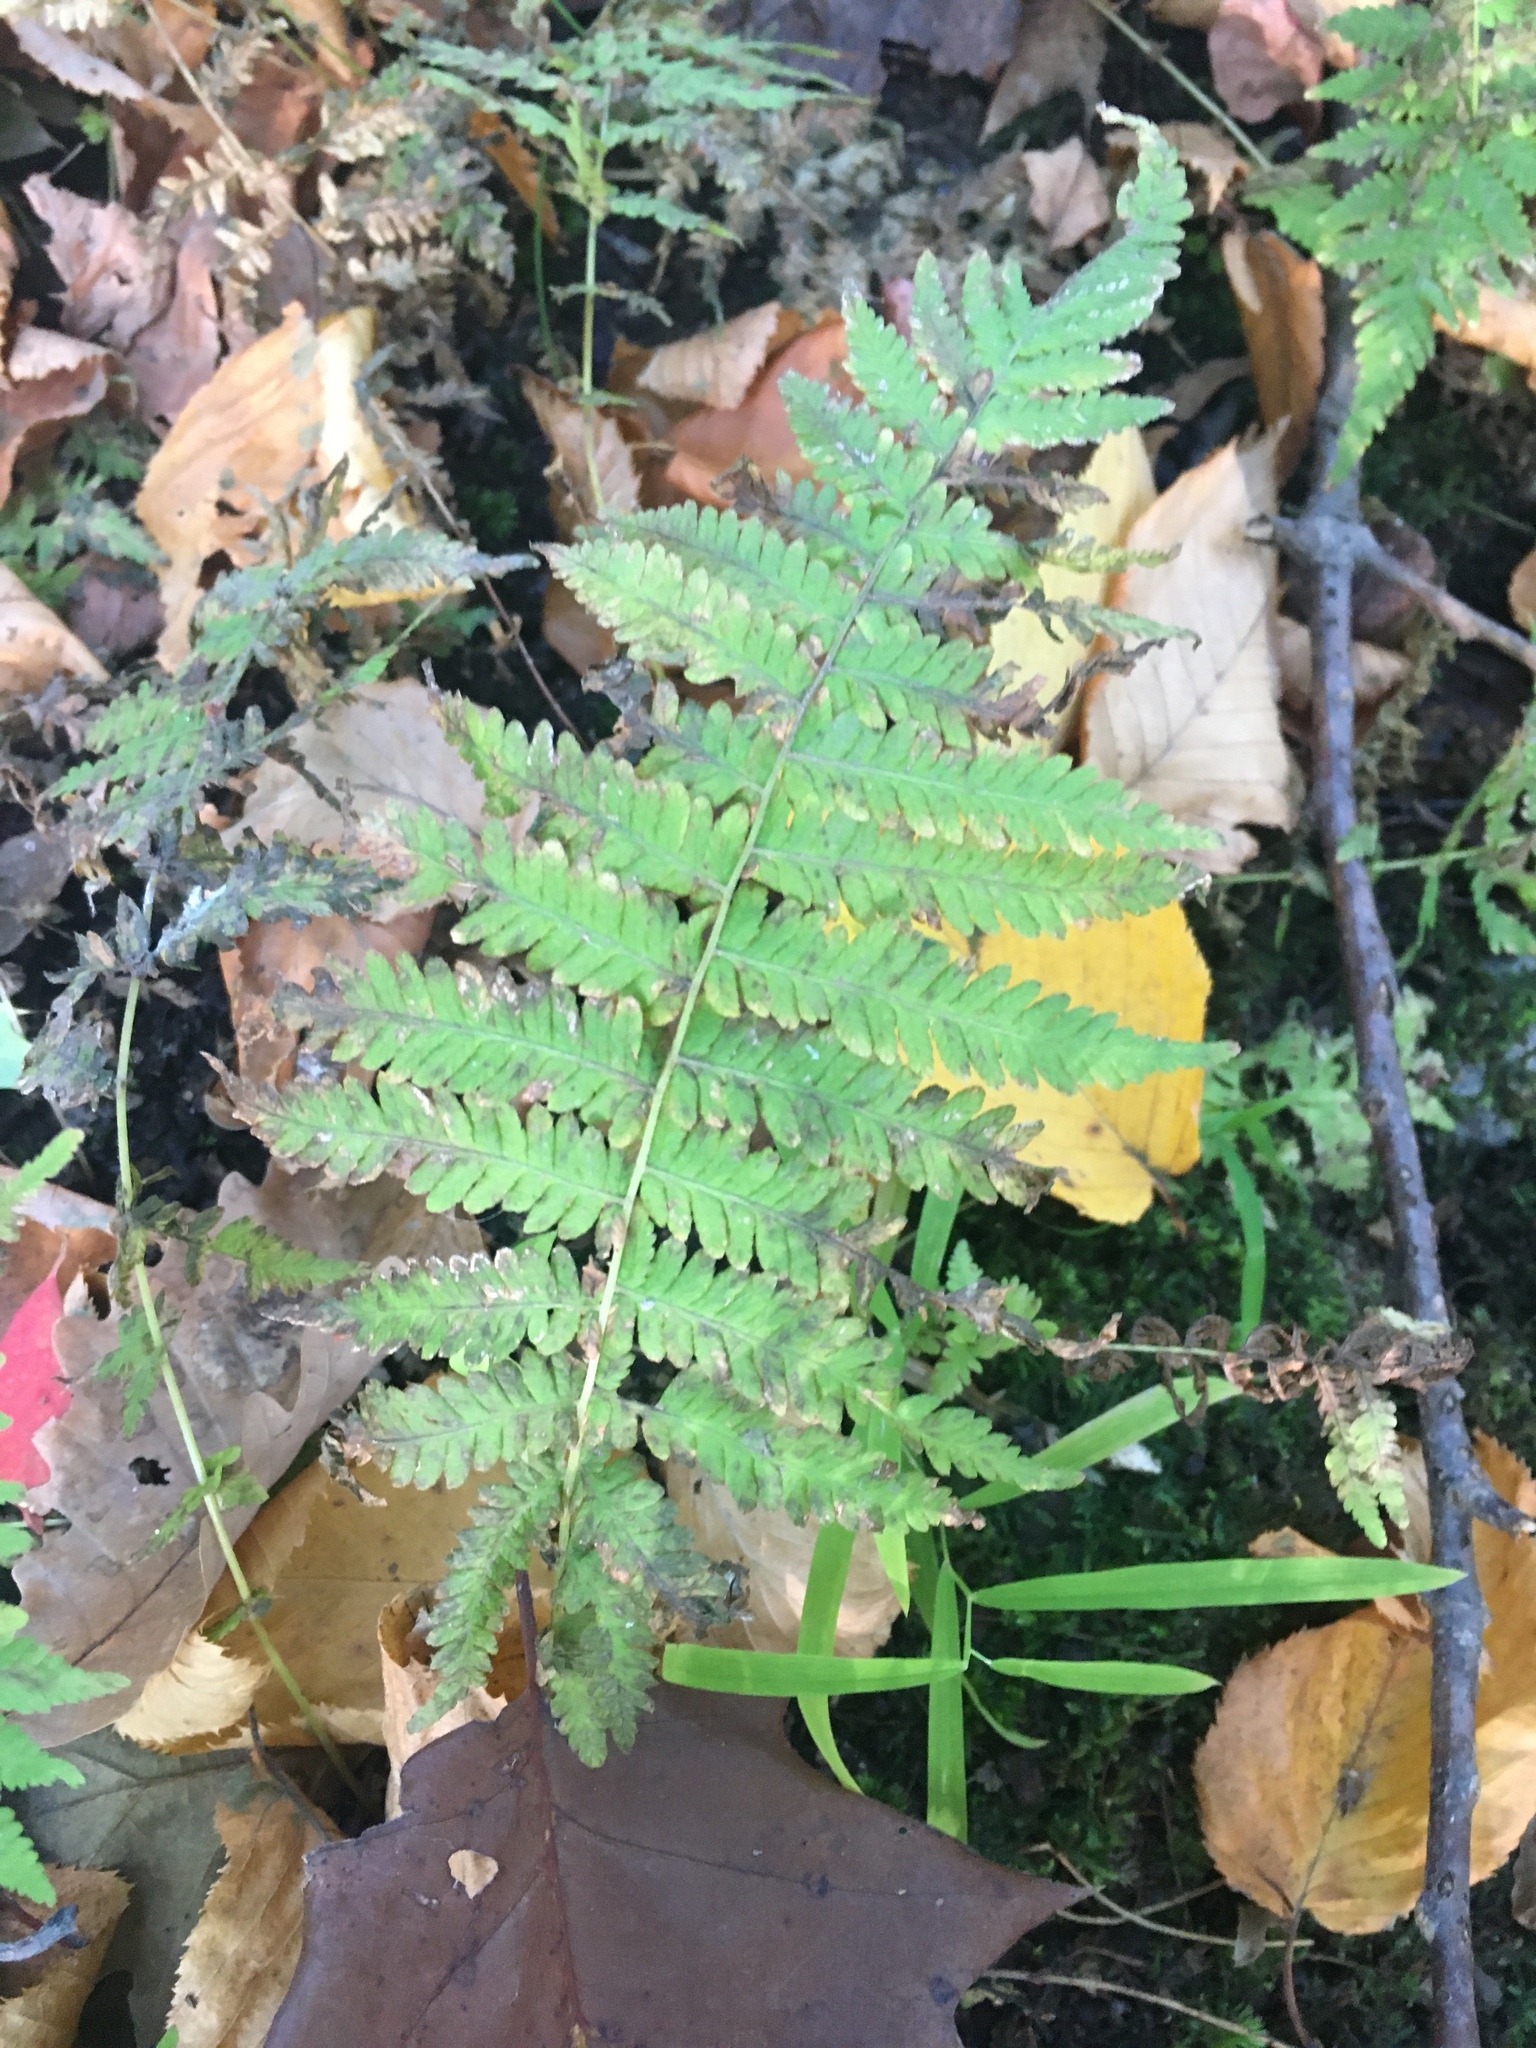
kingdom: Plantae
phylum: Tracheophyta
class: Polypodiopsida
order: Polypodiales
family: Thelypteridaceae
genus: Amauropelta
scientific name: Amauropelta noveboracensis
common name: New york fern
